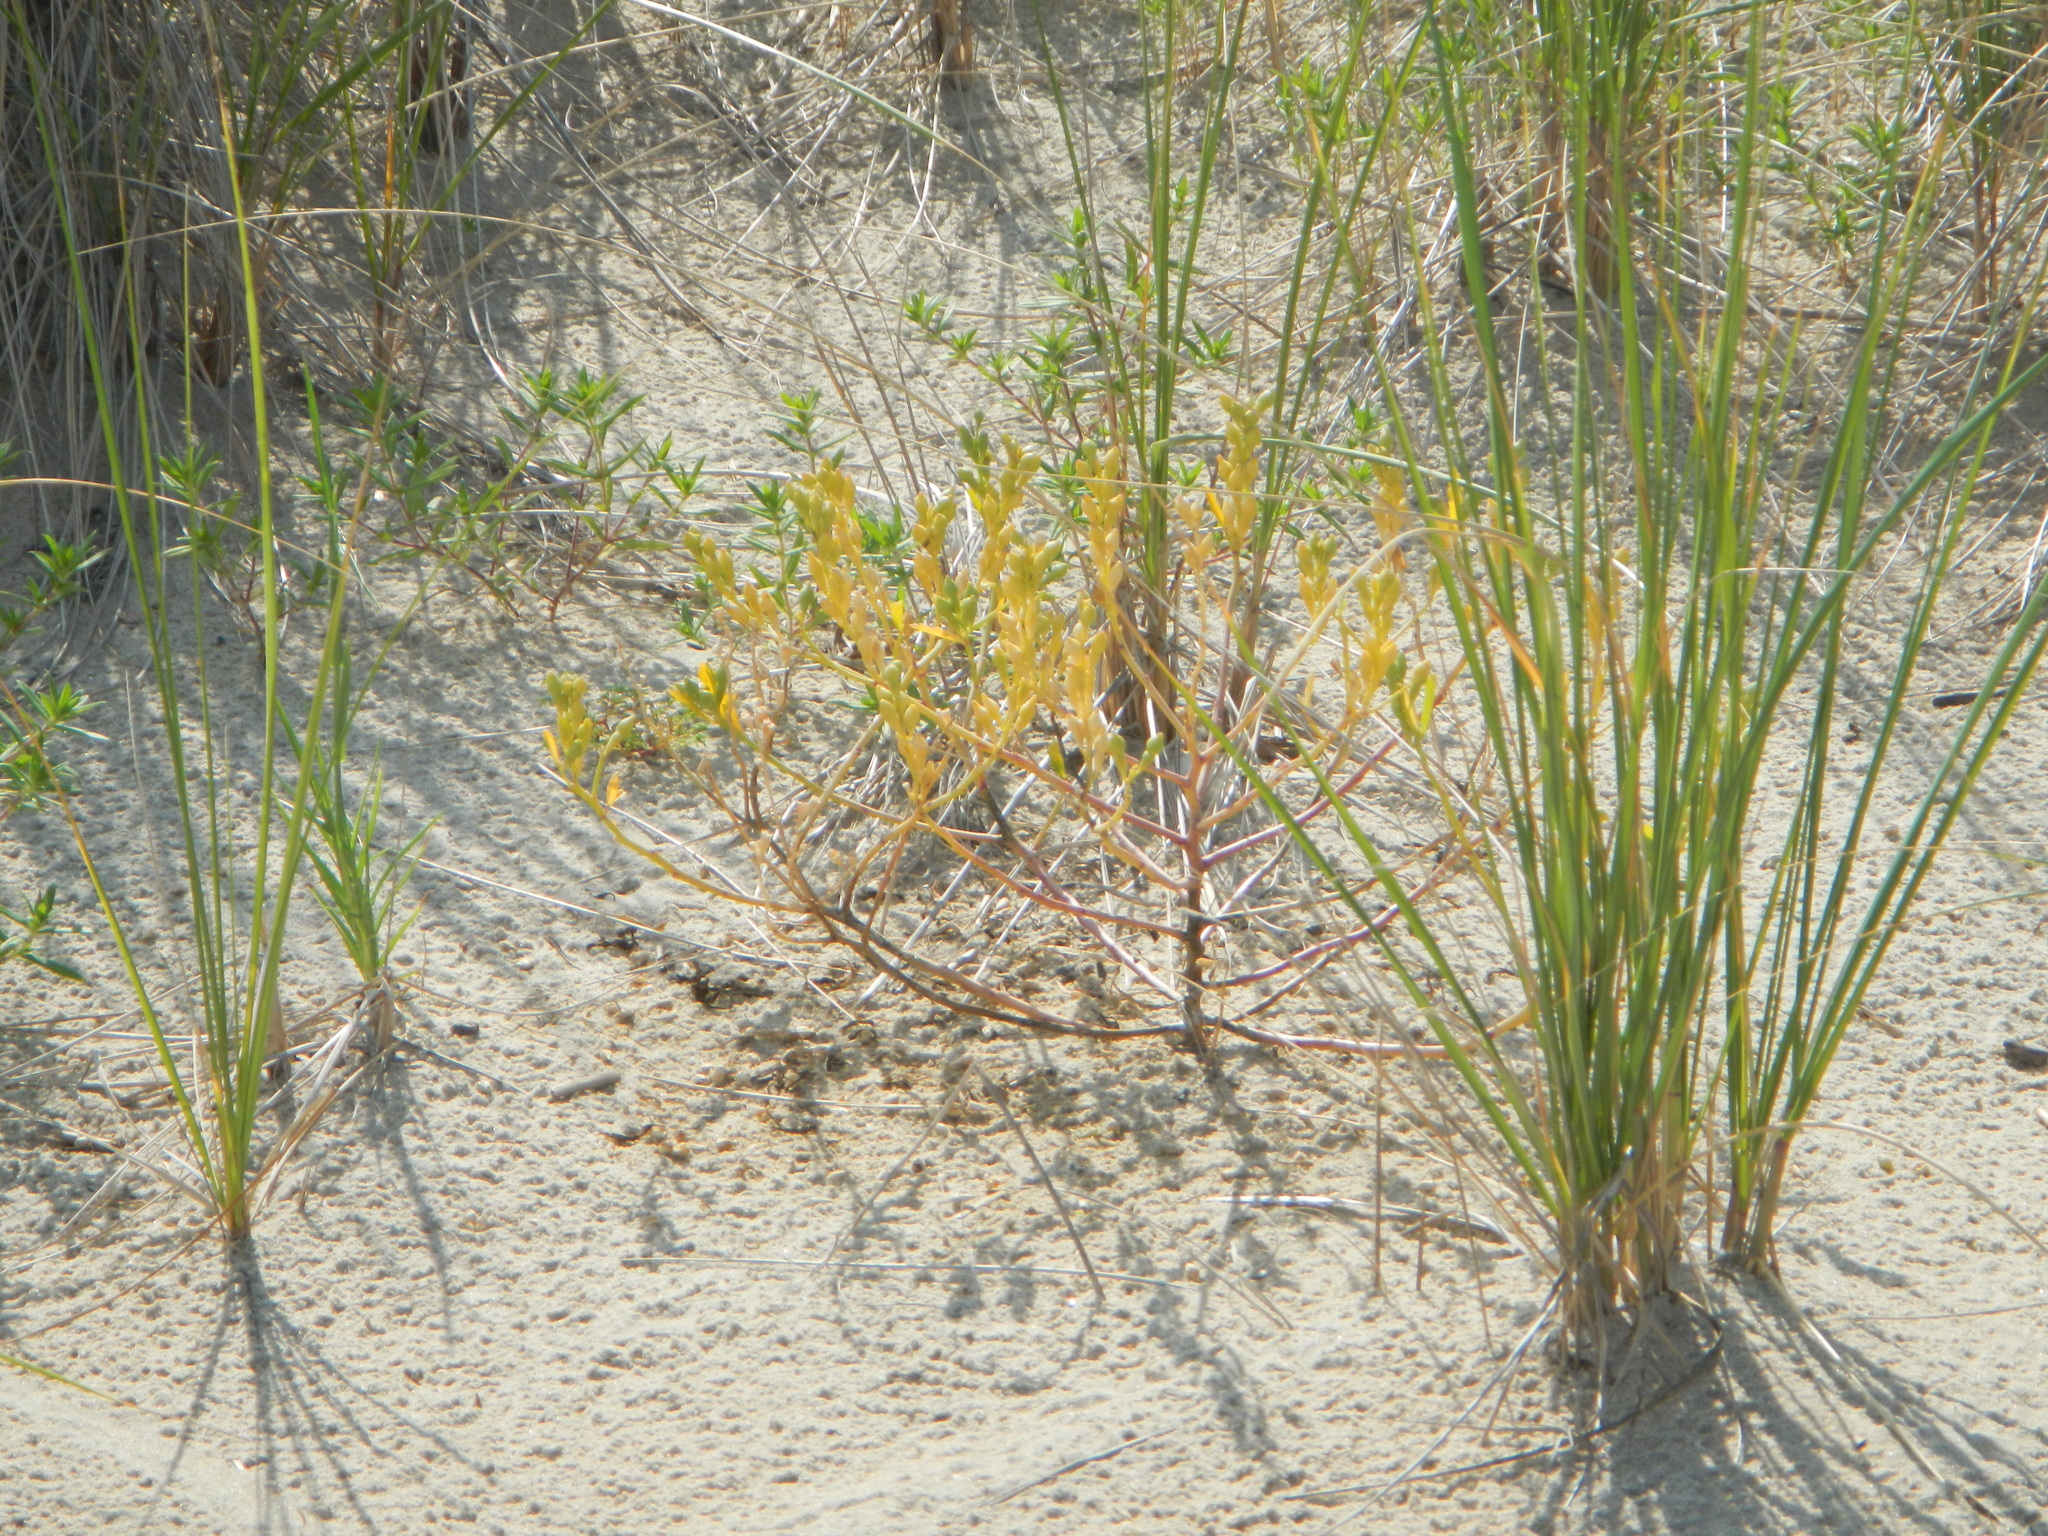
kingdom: Plantae
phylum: Tracheophyta
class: Magnoliopsida
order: Brassicales
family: Brassicaceae
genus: Cakile
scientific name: Cakile edentula
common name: American sea rocket
